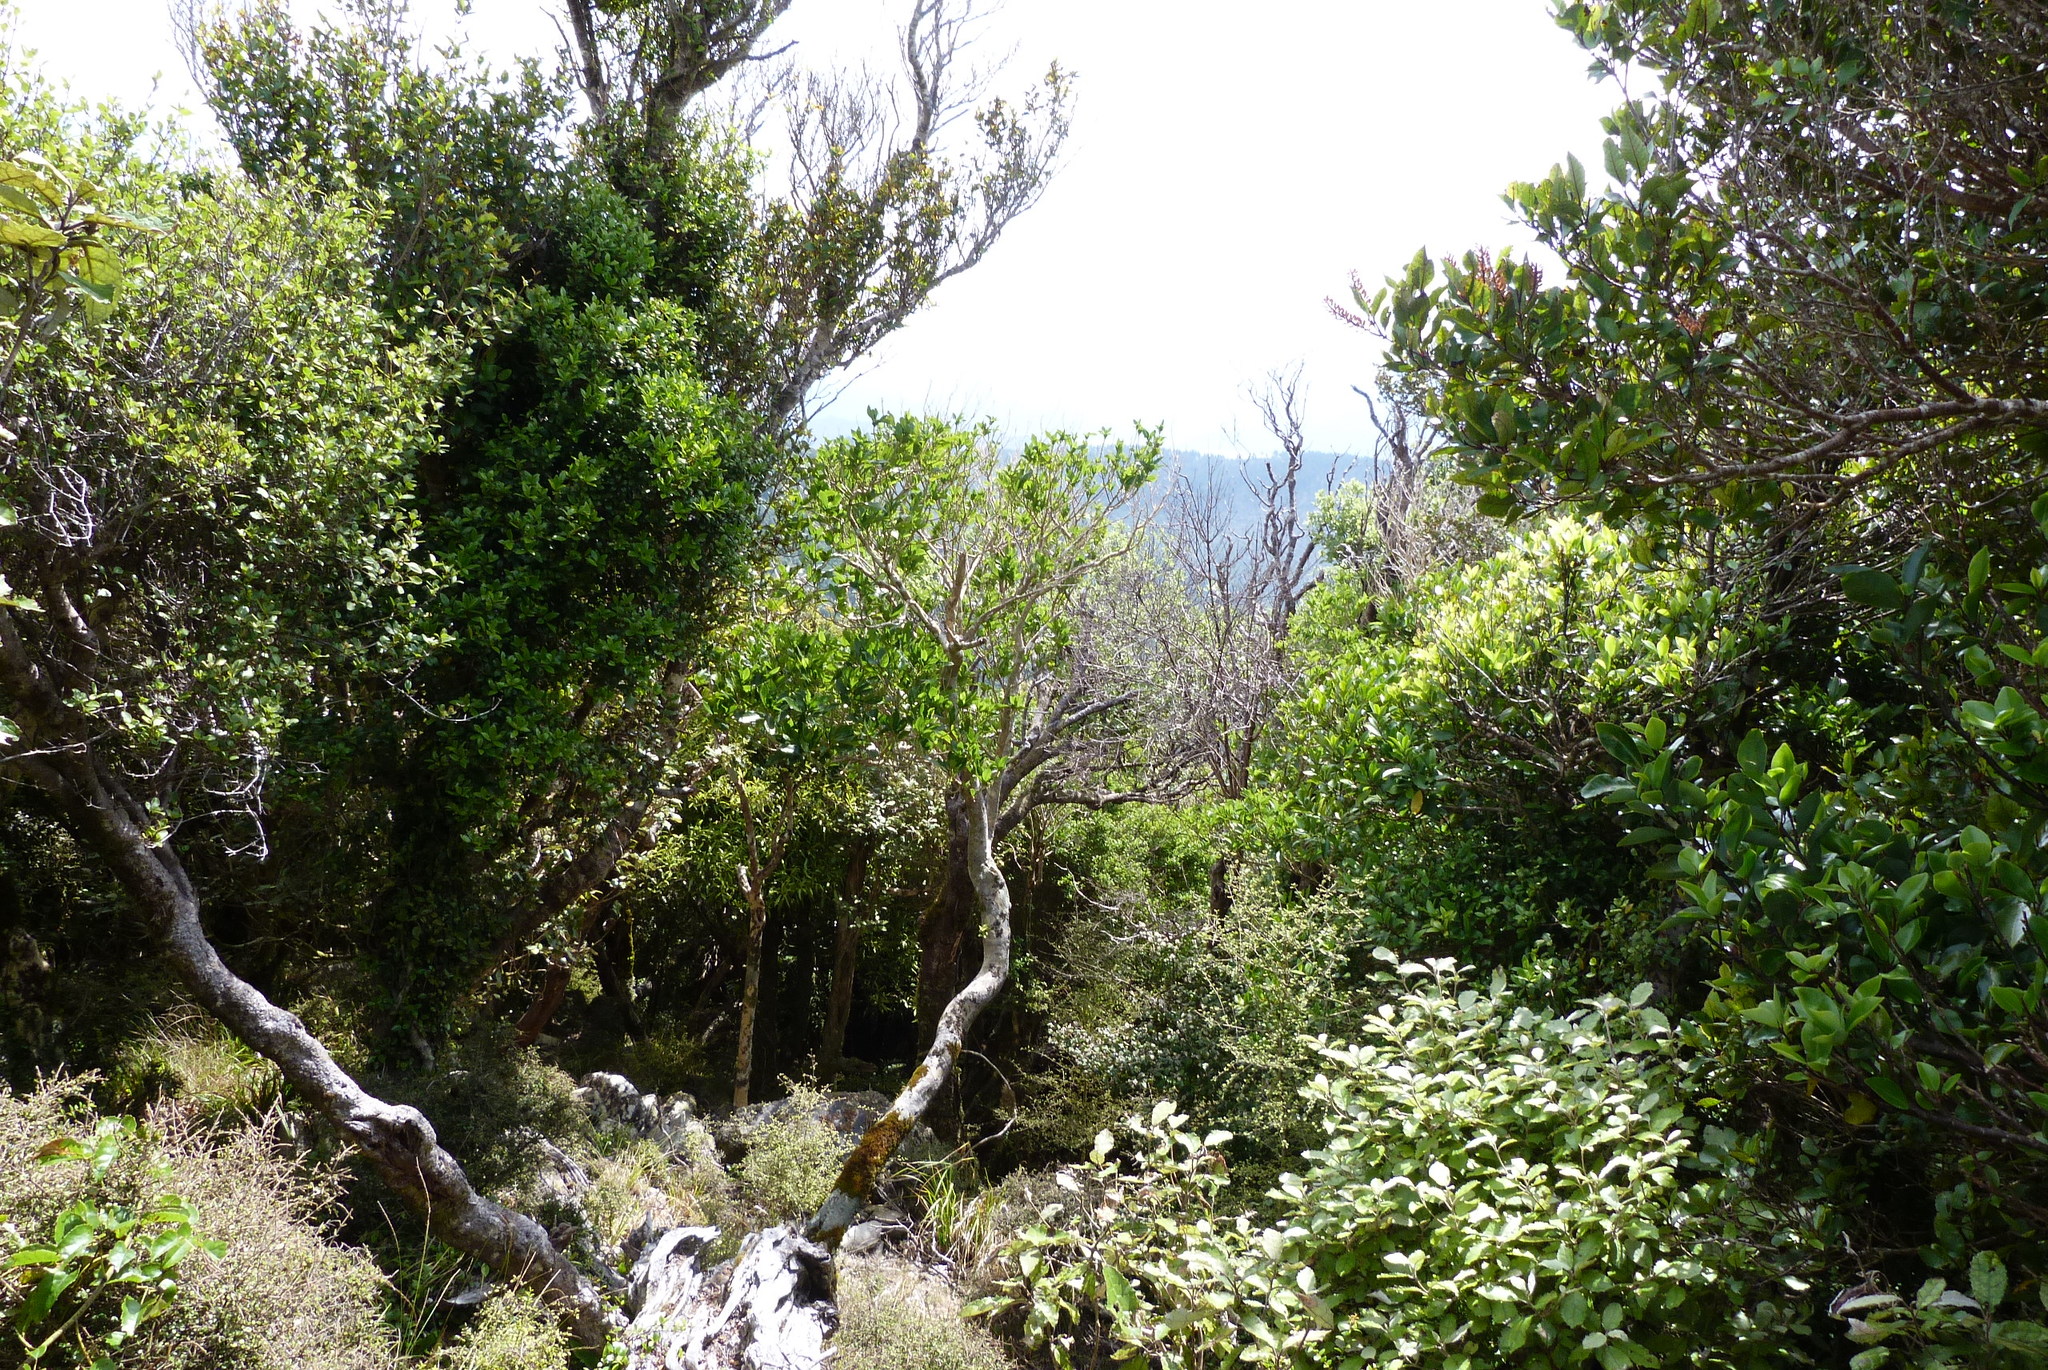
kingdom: Plantae
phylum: Tracheophyta
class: Magnoliopsida
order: Oxalidales
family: Cunoniaceae
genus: Pterophylla
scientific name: Pterophylla racemosa
